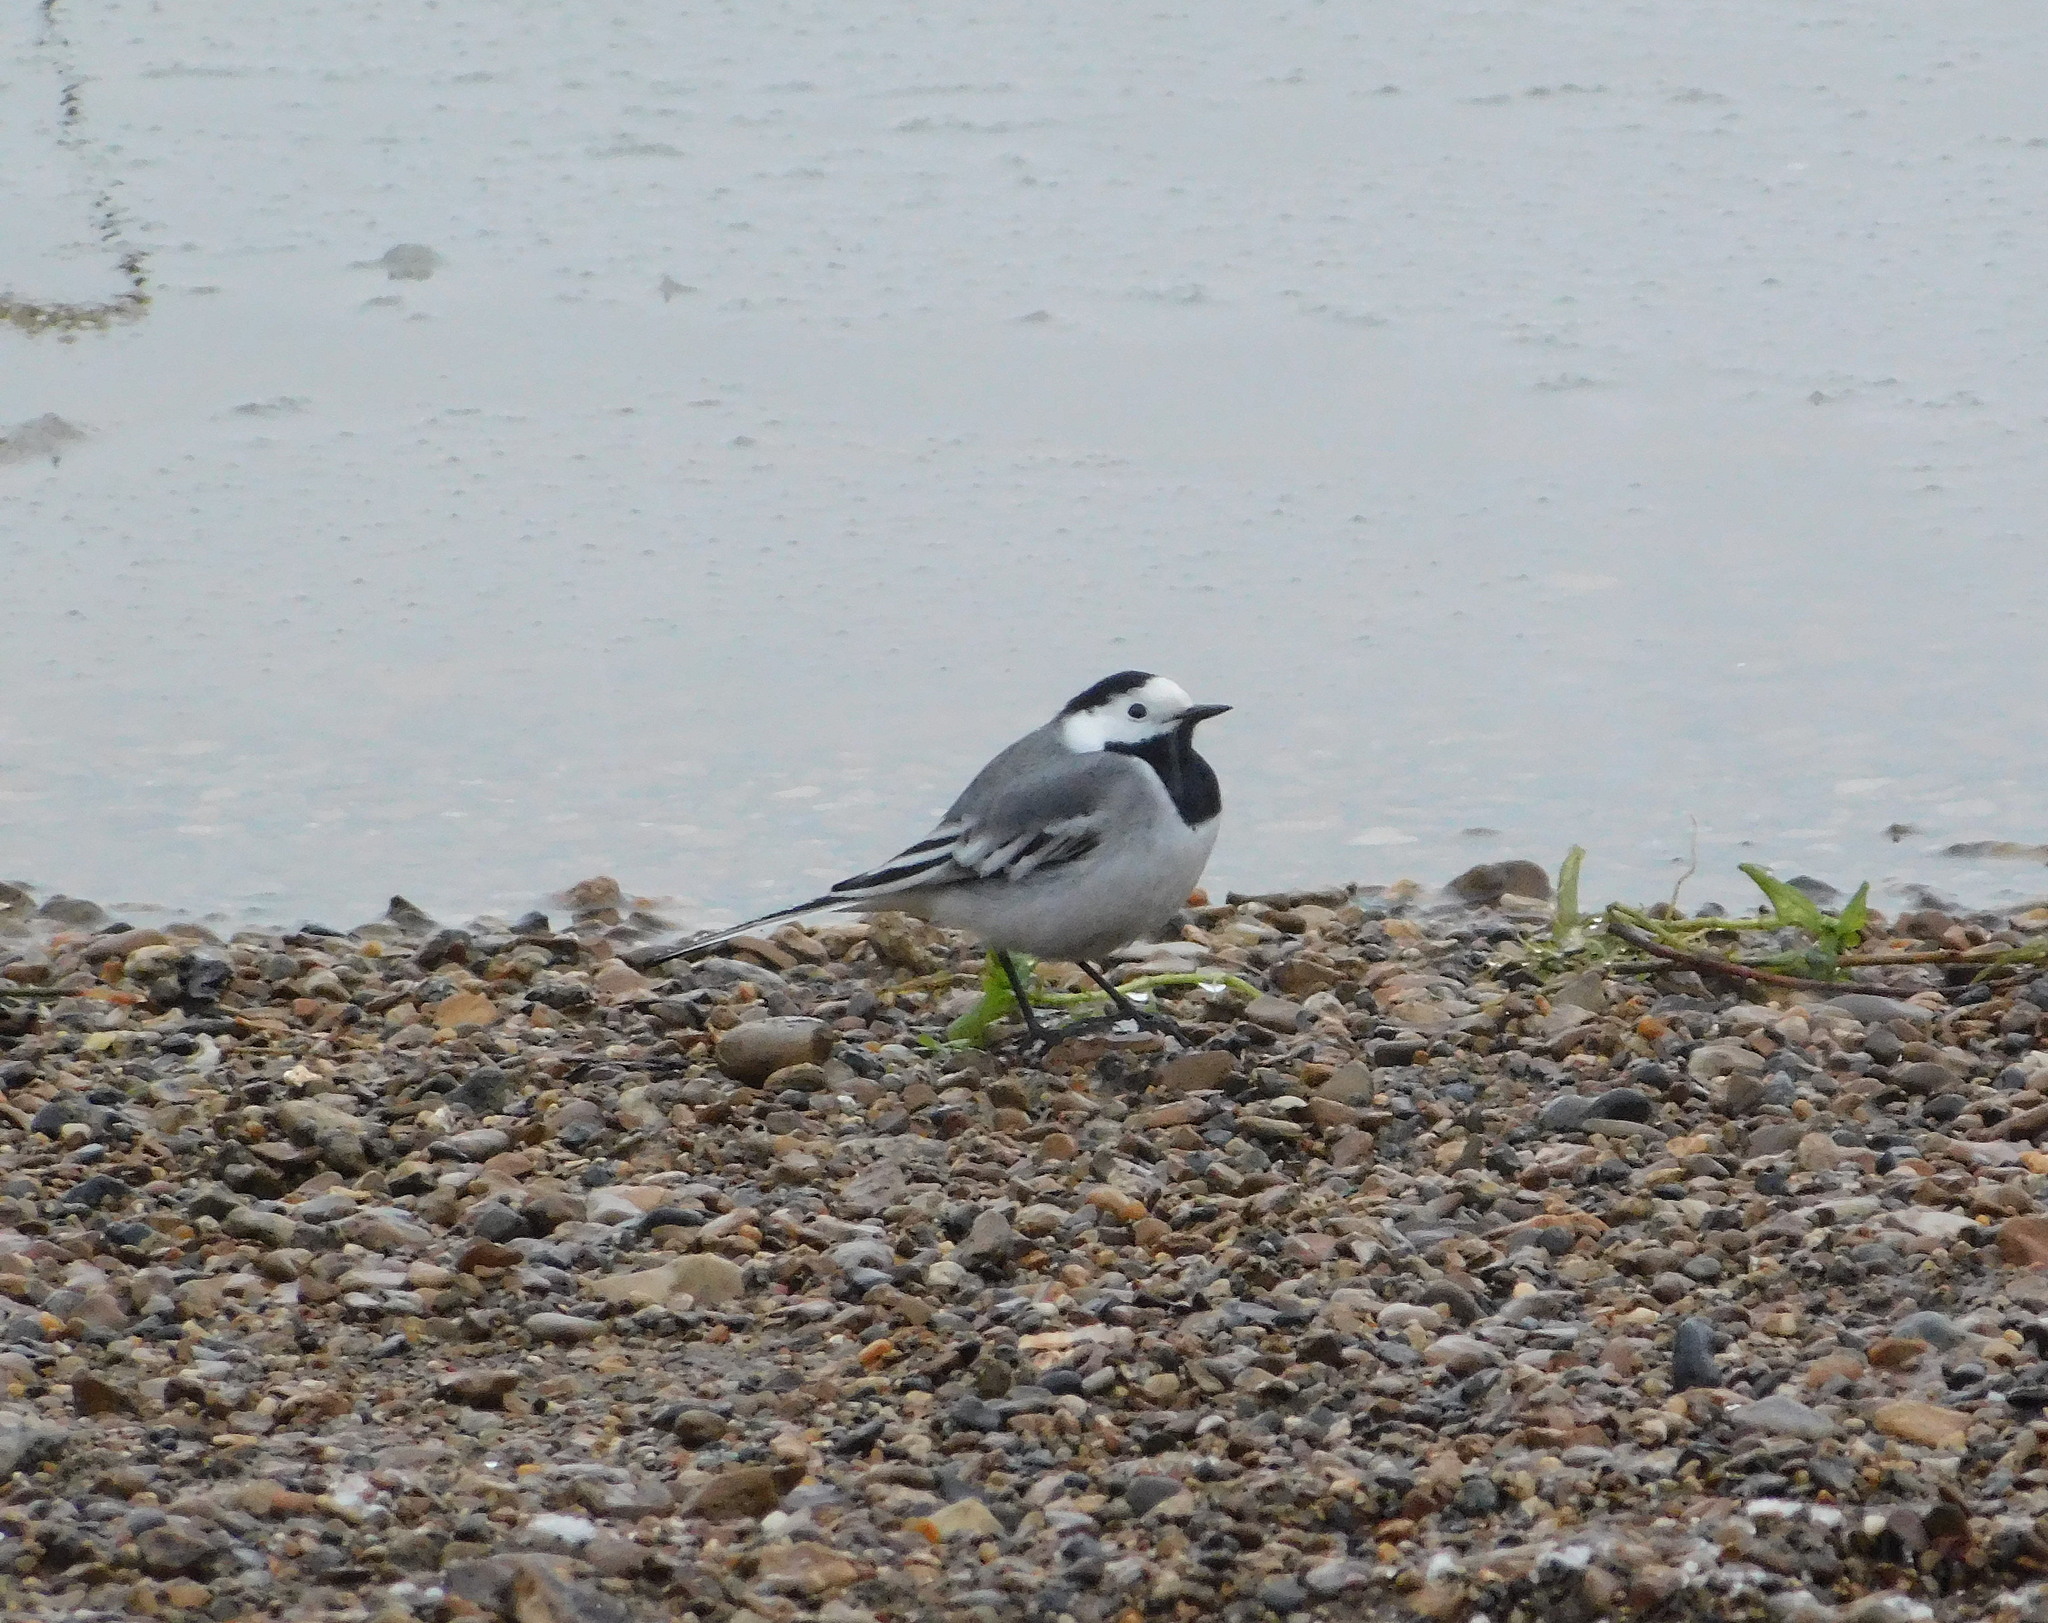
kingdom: Animalia
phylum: Chordata
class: Aves
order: Passeriformes
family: Motacillidae
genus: Motacilla
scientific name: Motacilla alba
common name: White wagtail
